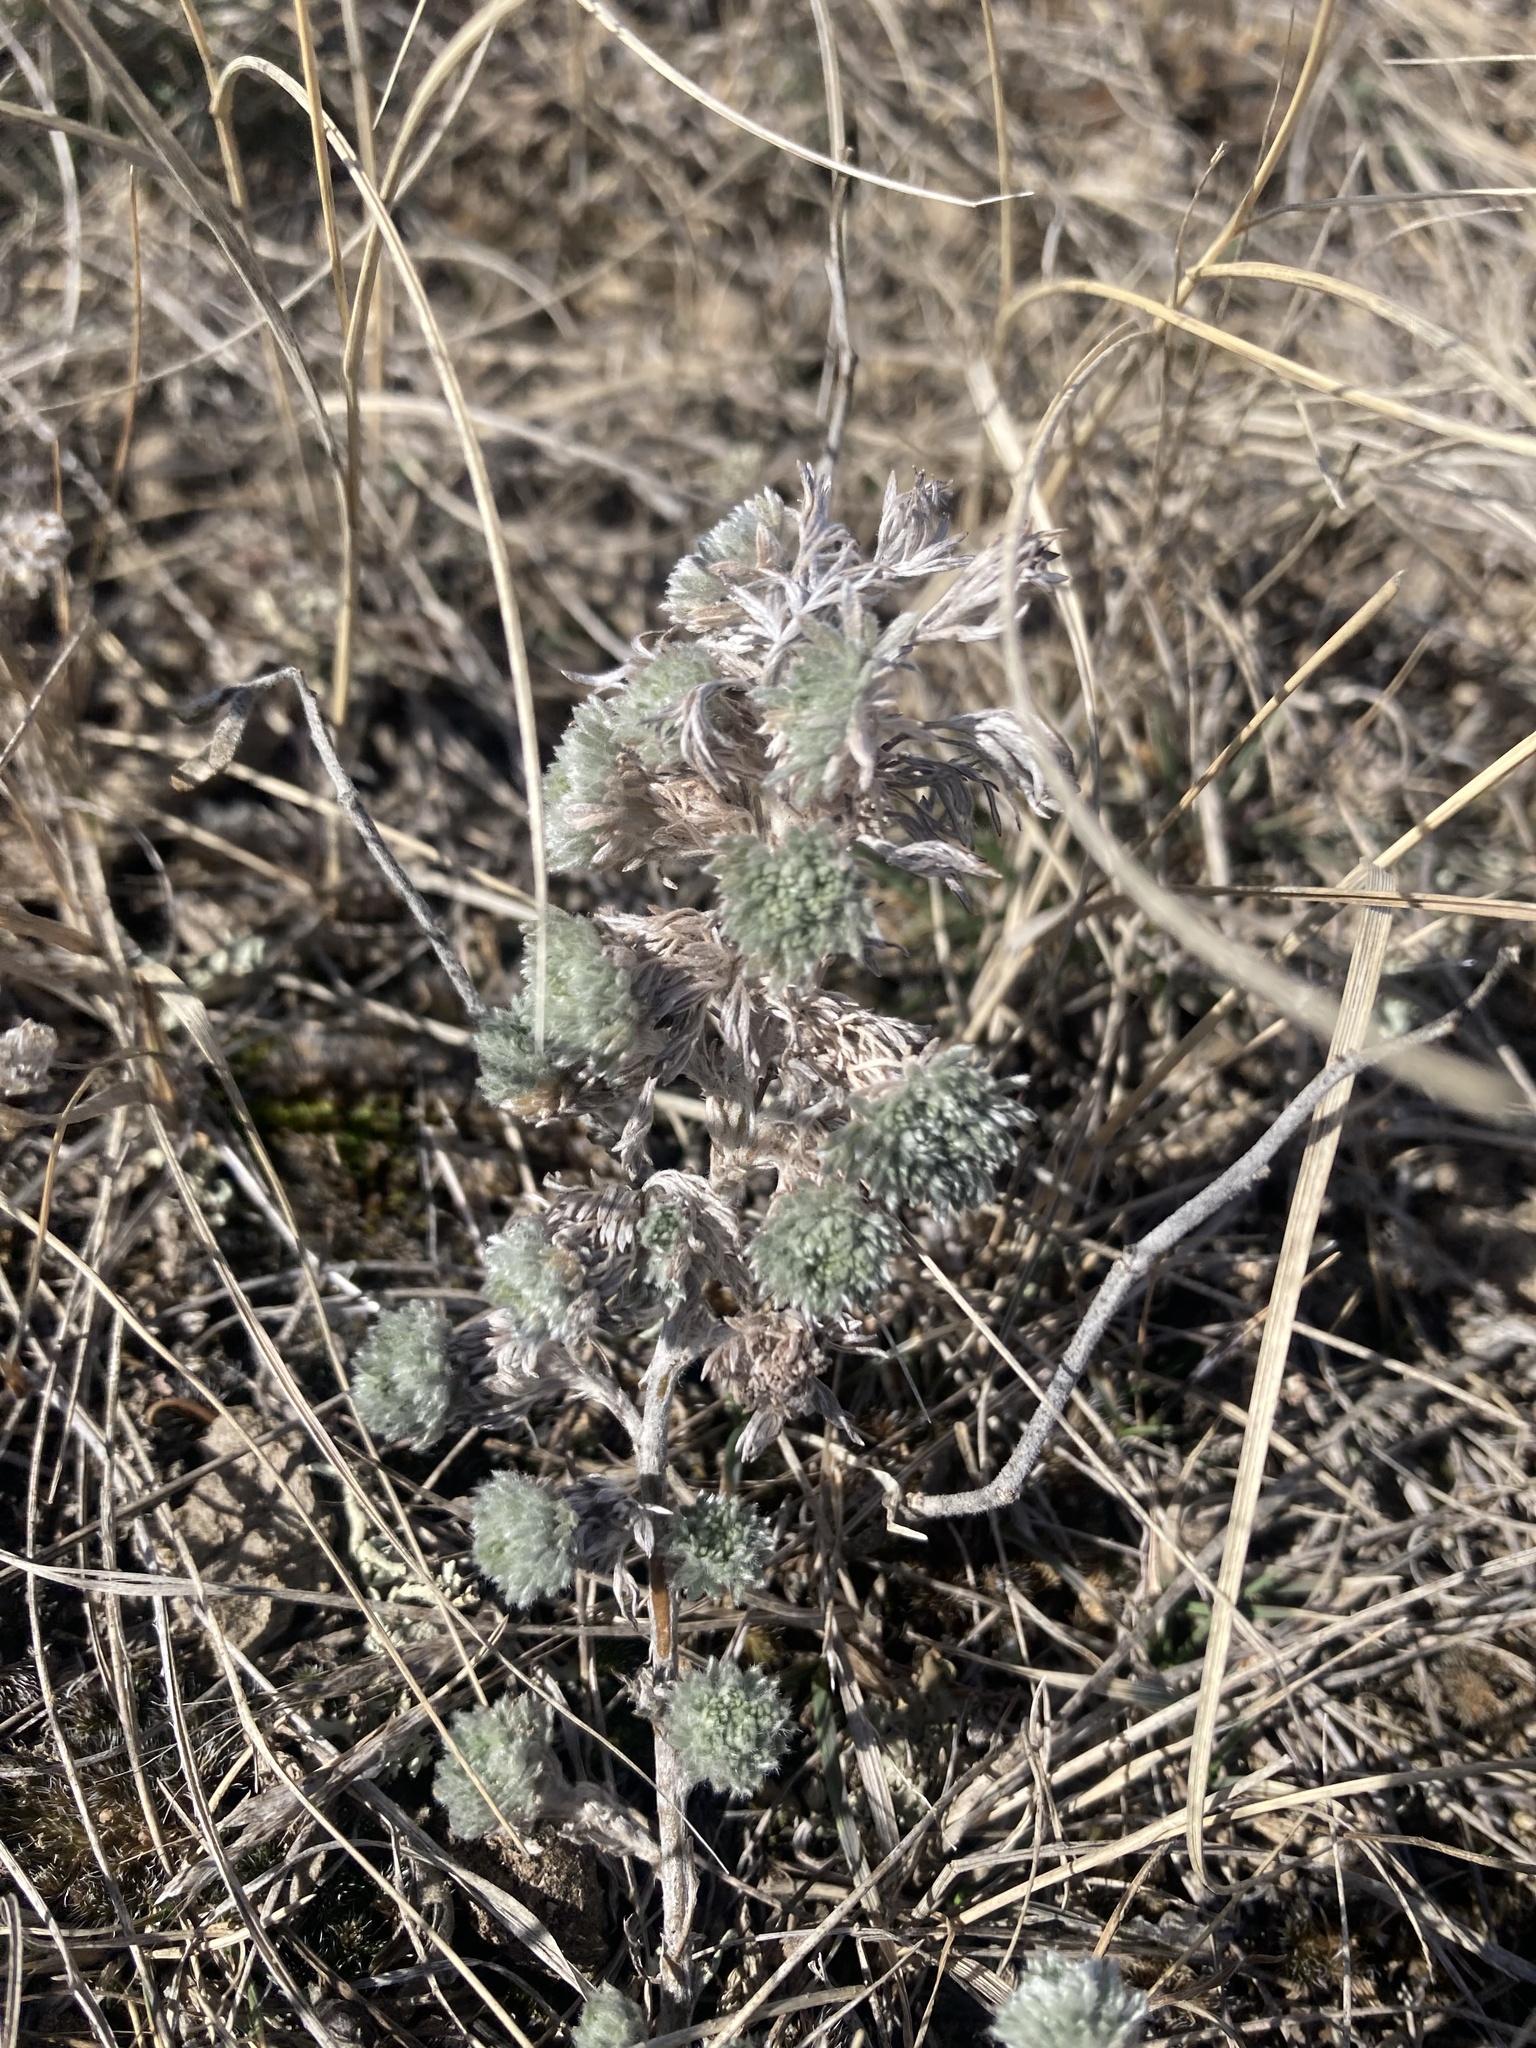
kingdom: Plantae
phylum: Tracheophyta
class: Magnoliopsida
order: Asterales
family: Asteraceae
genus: Artemisia
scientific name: Artemisia frigida
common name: Prairie sagewort
